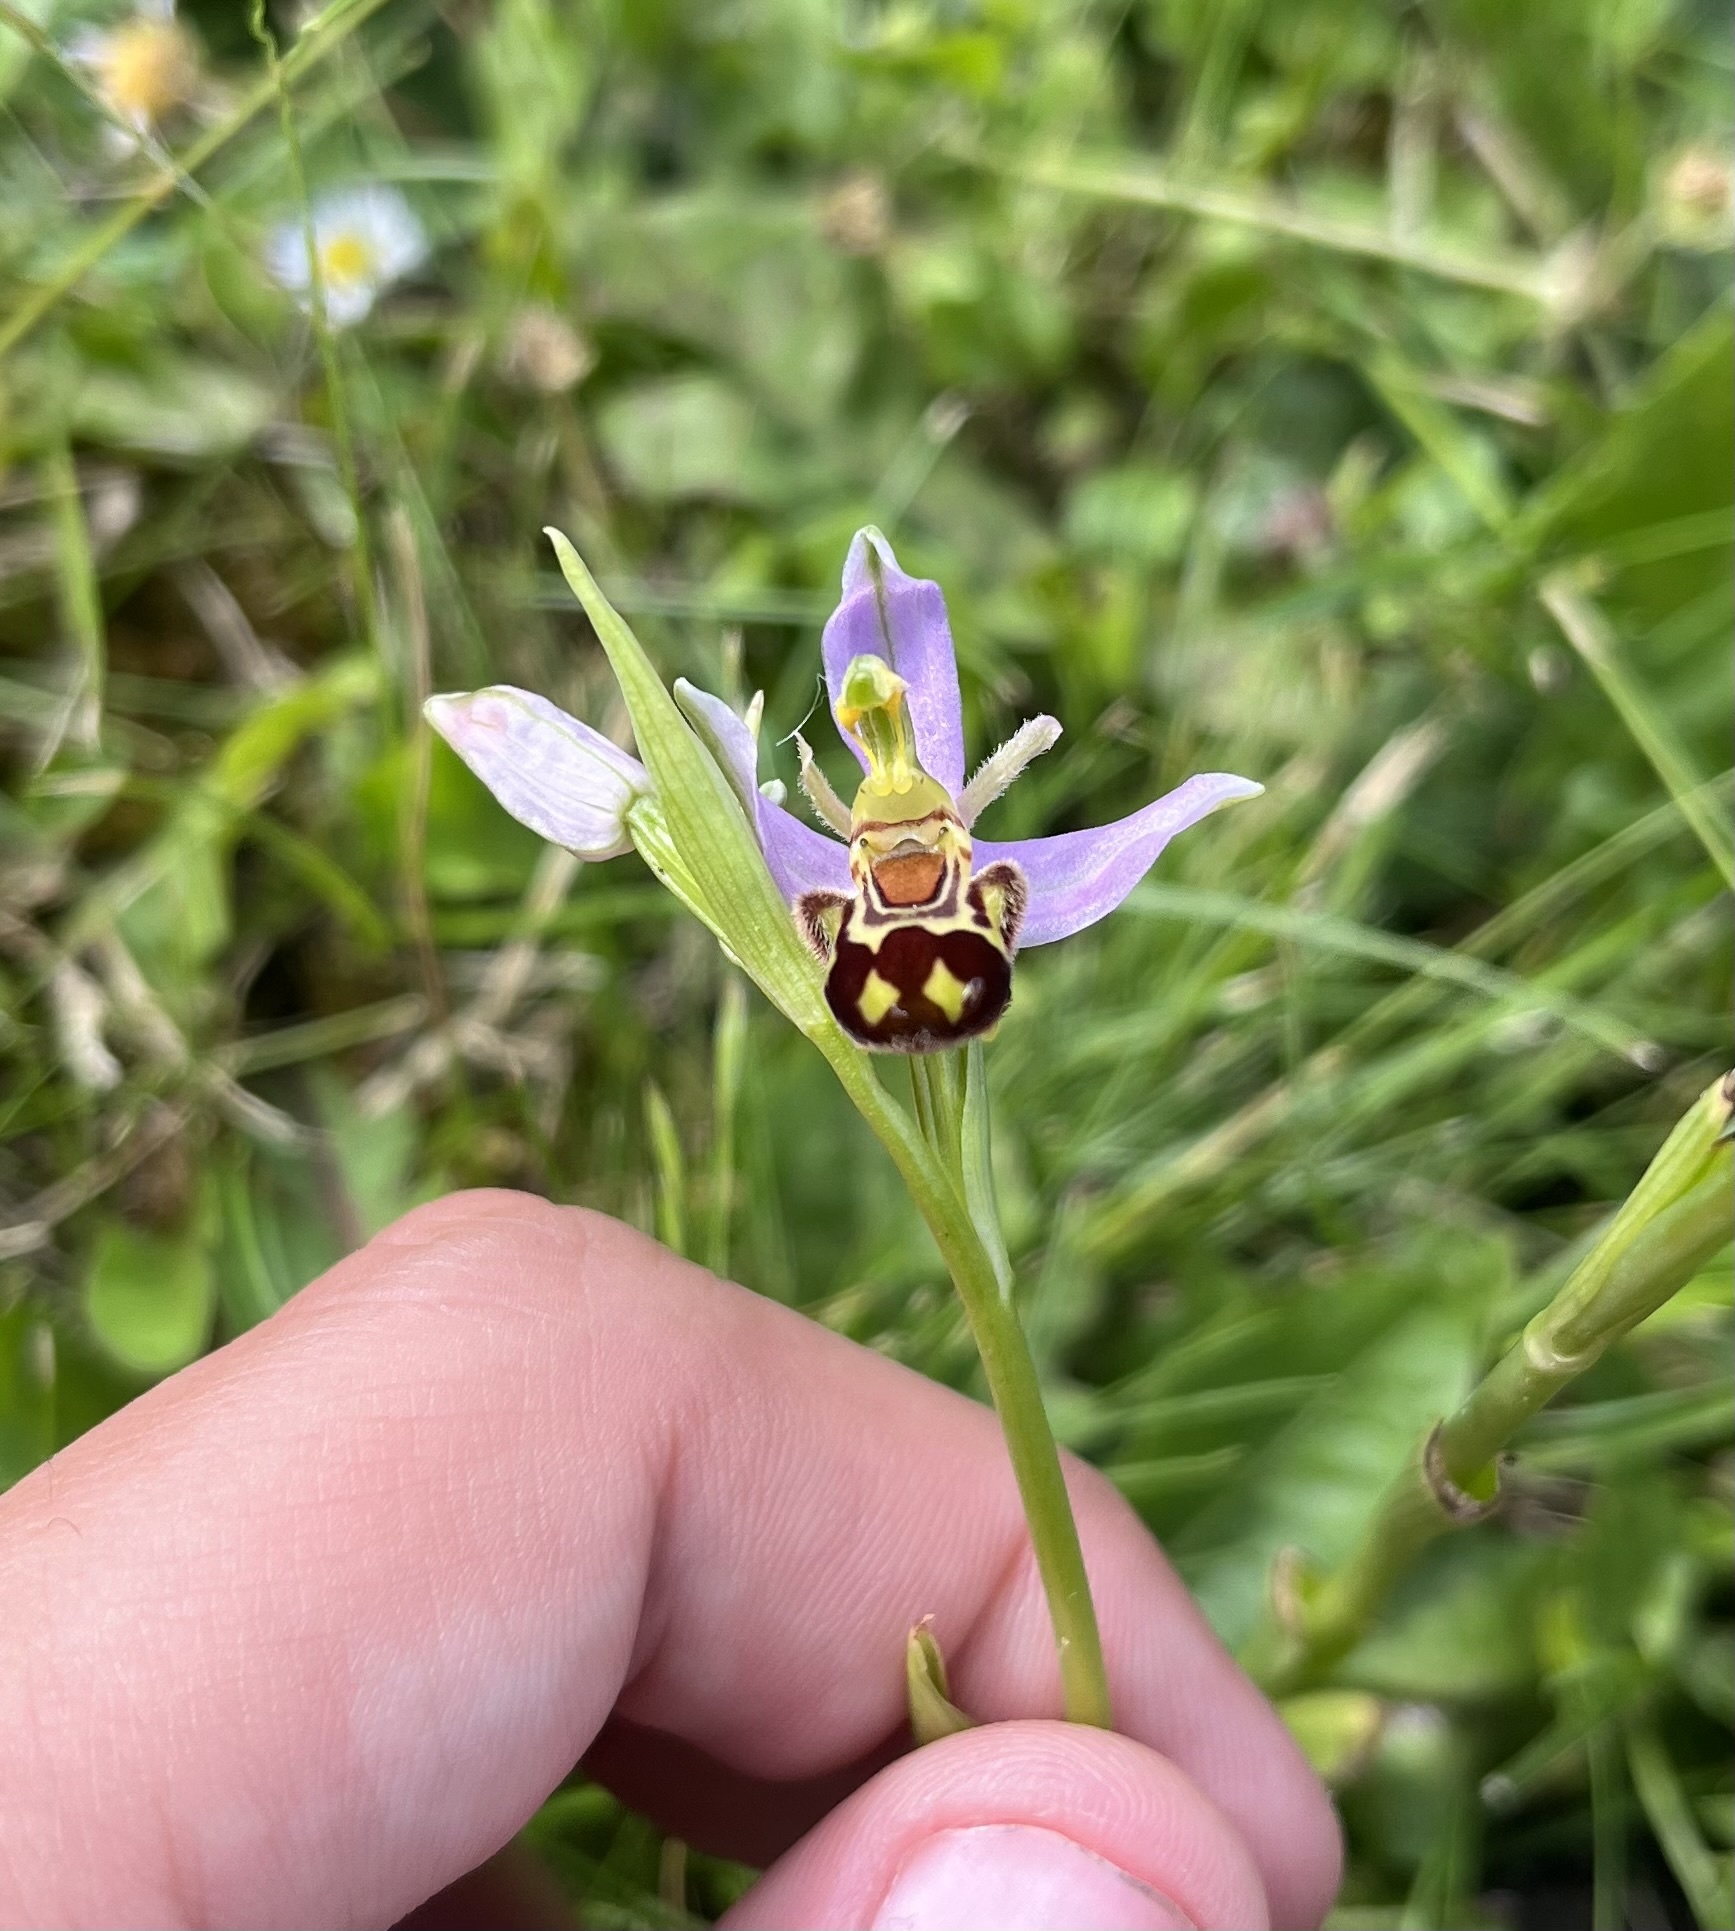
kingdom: Plantae
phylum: Tracheophyta
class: Liliopsida
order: Asparagales
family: Orchidaceae
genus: Ophrys
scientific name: Ophrys apifera
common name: Bee orchid
